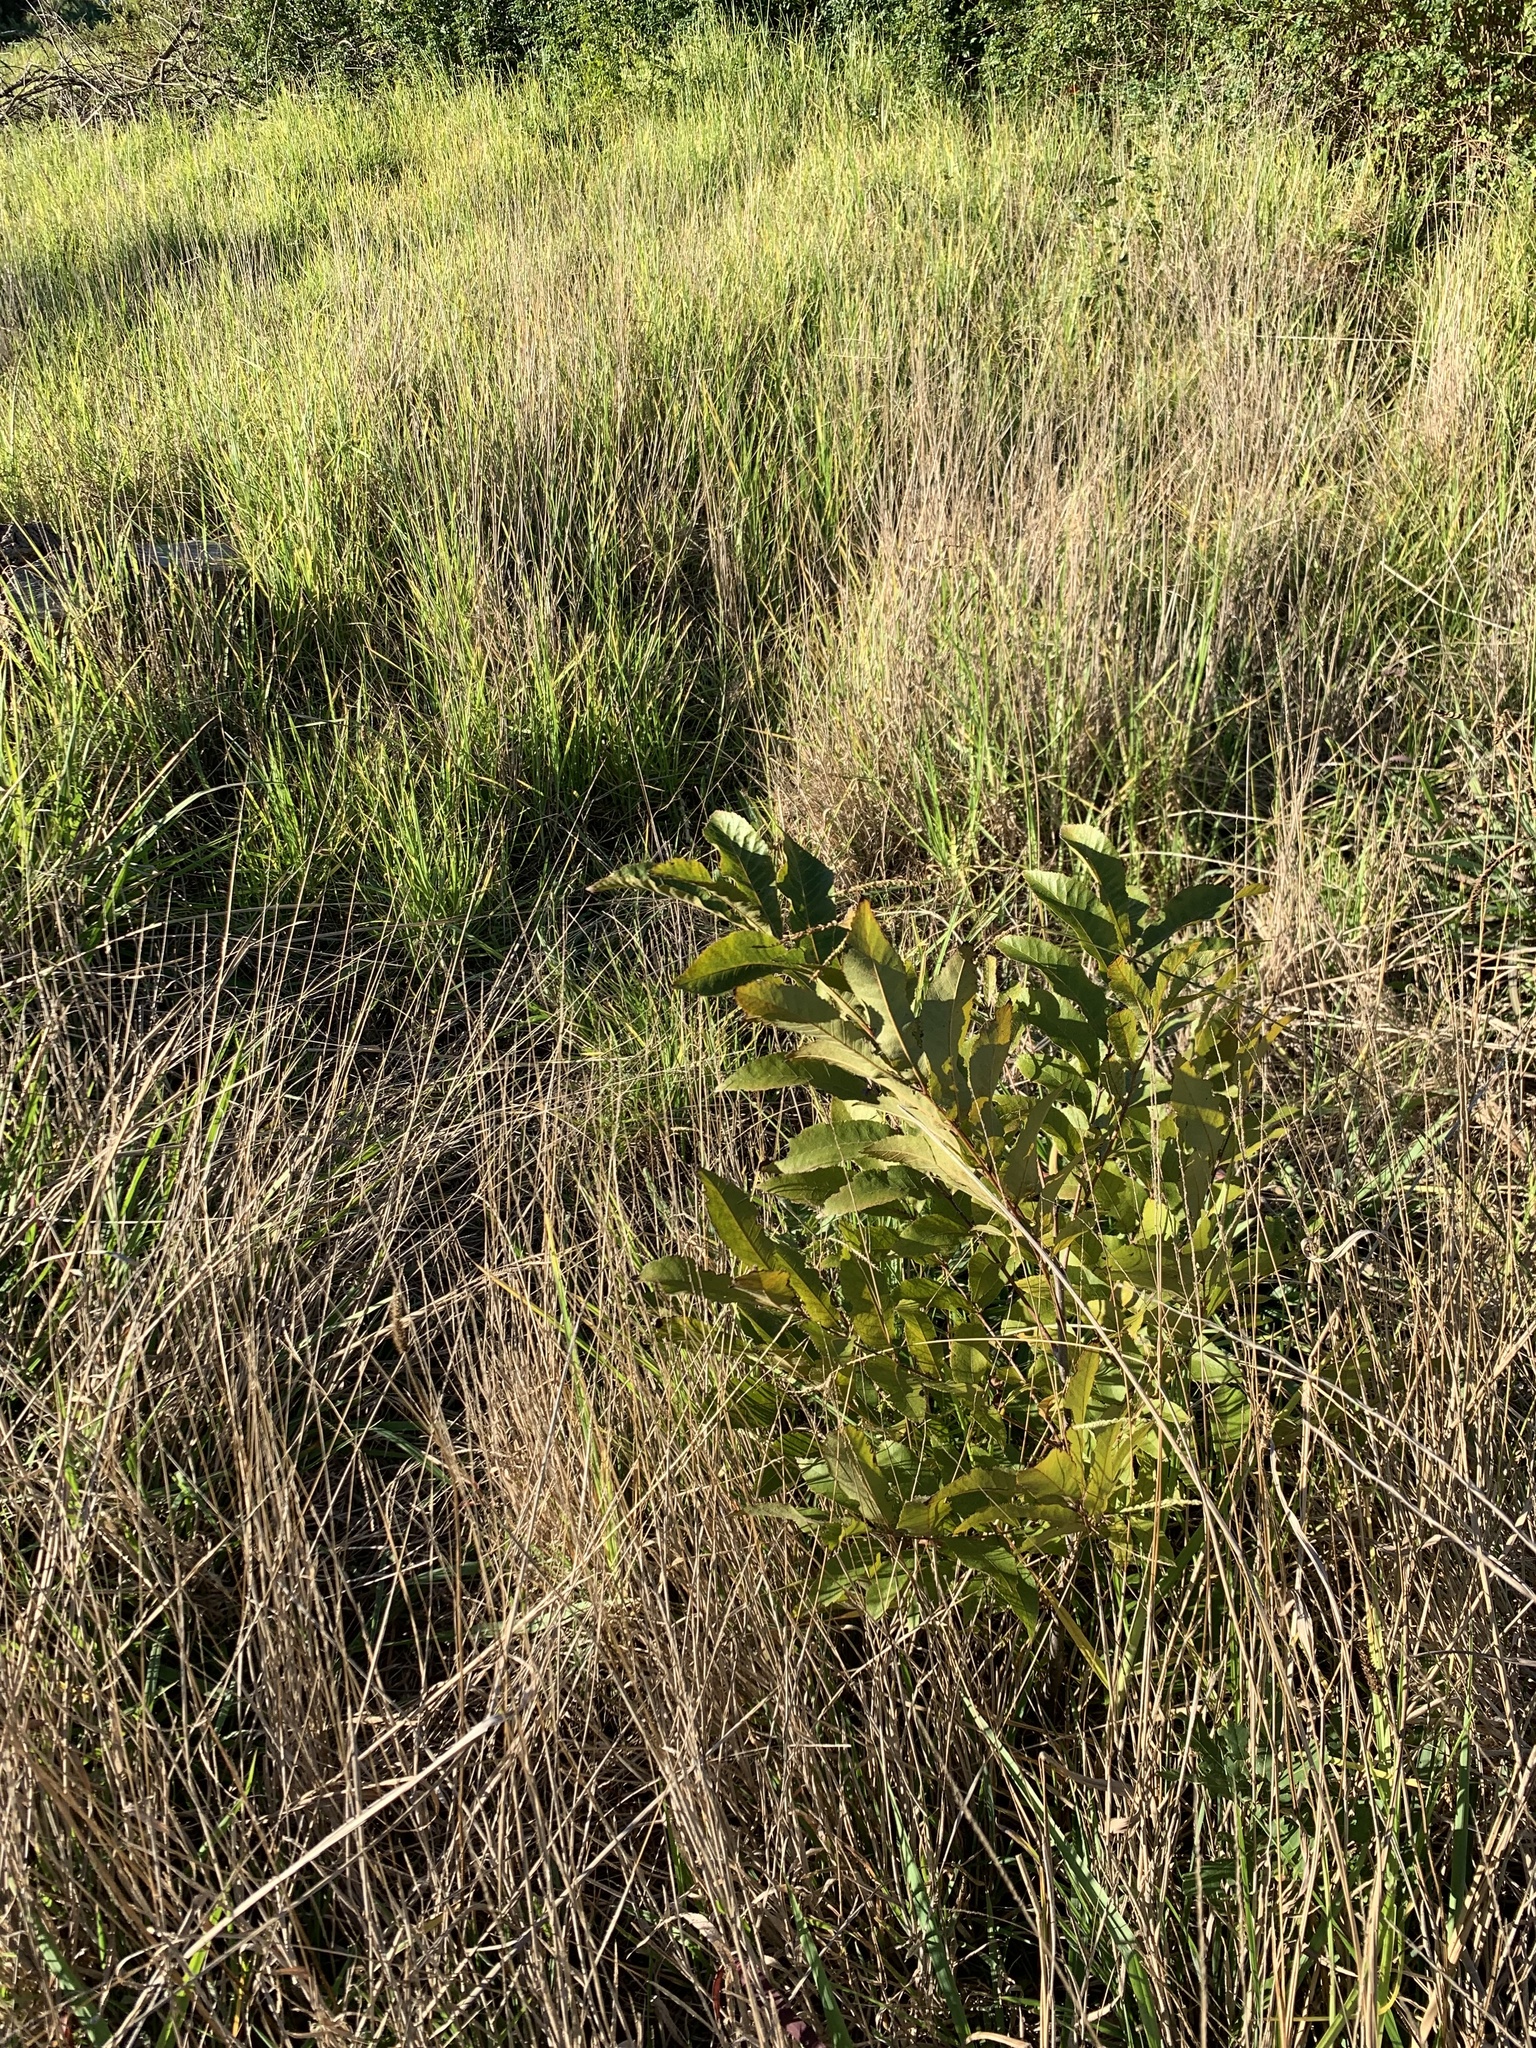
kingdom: Plantae
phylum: Tracheophyta
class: Magnoliopsida
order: Fagales
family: Juglandaceae
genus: Carya
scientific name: Carya illinoinensis
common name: Pecan
